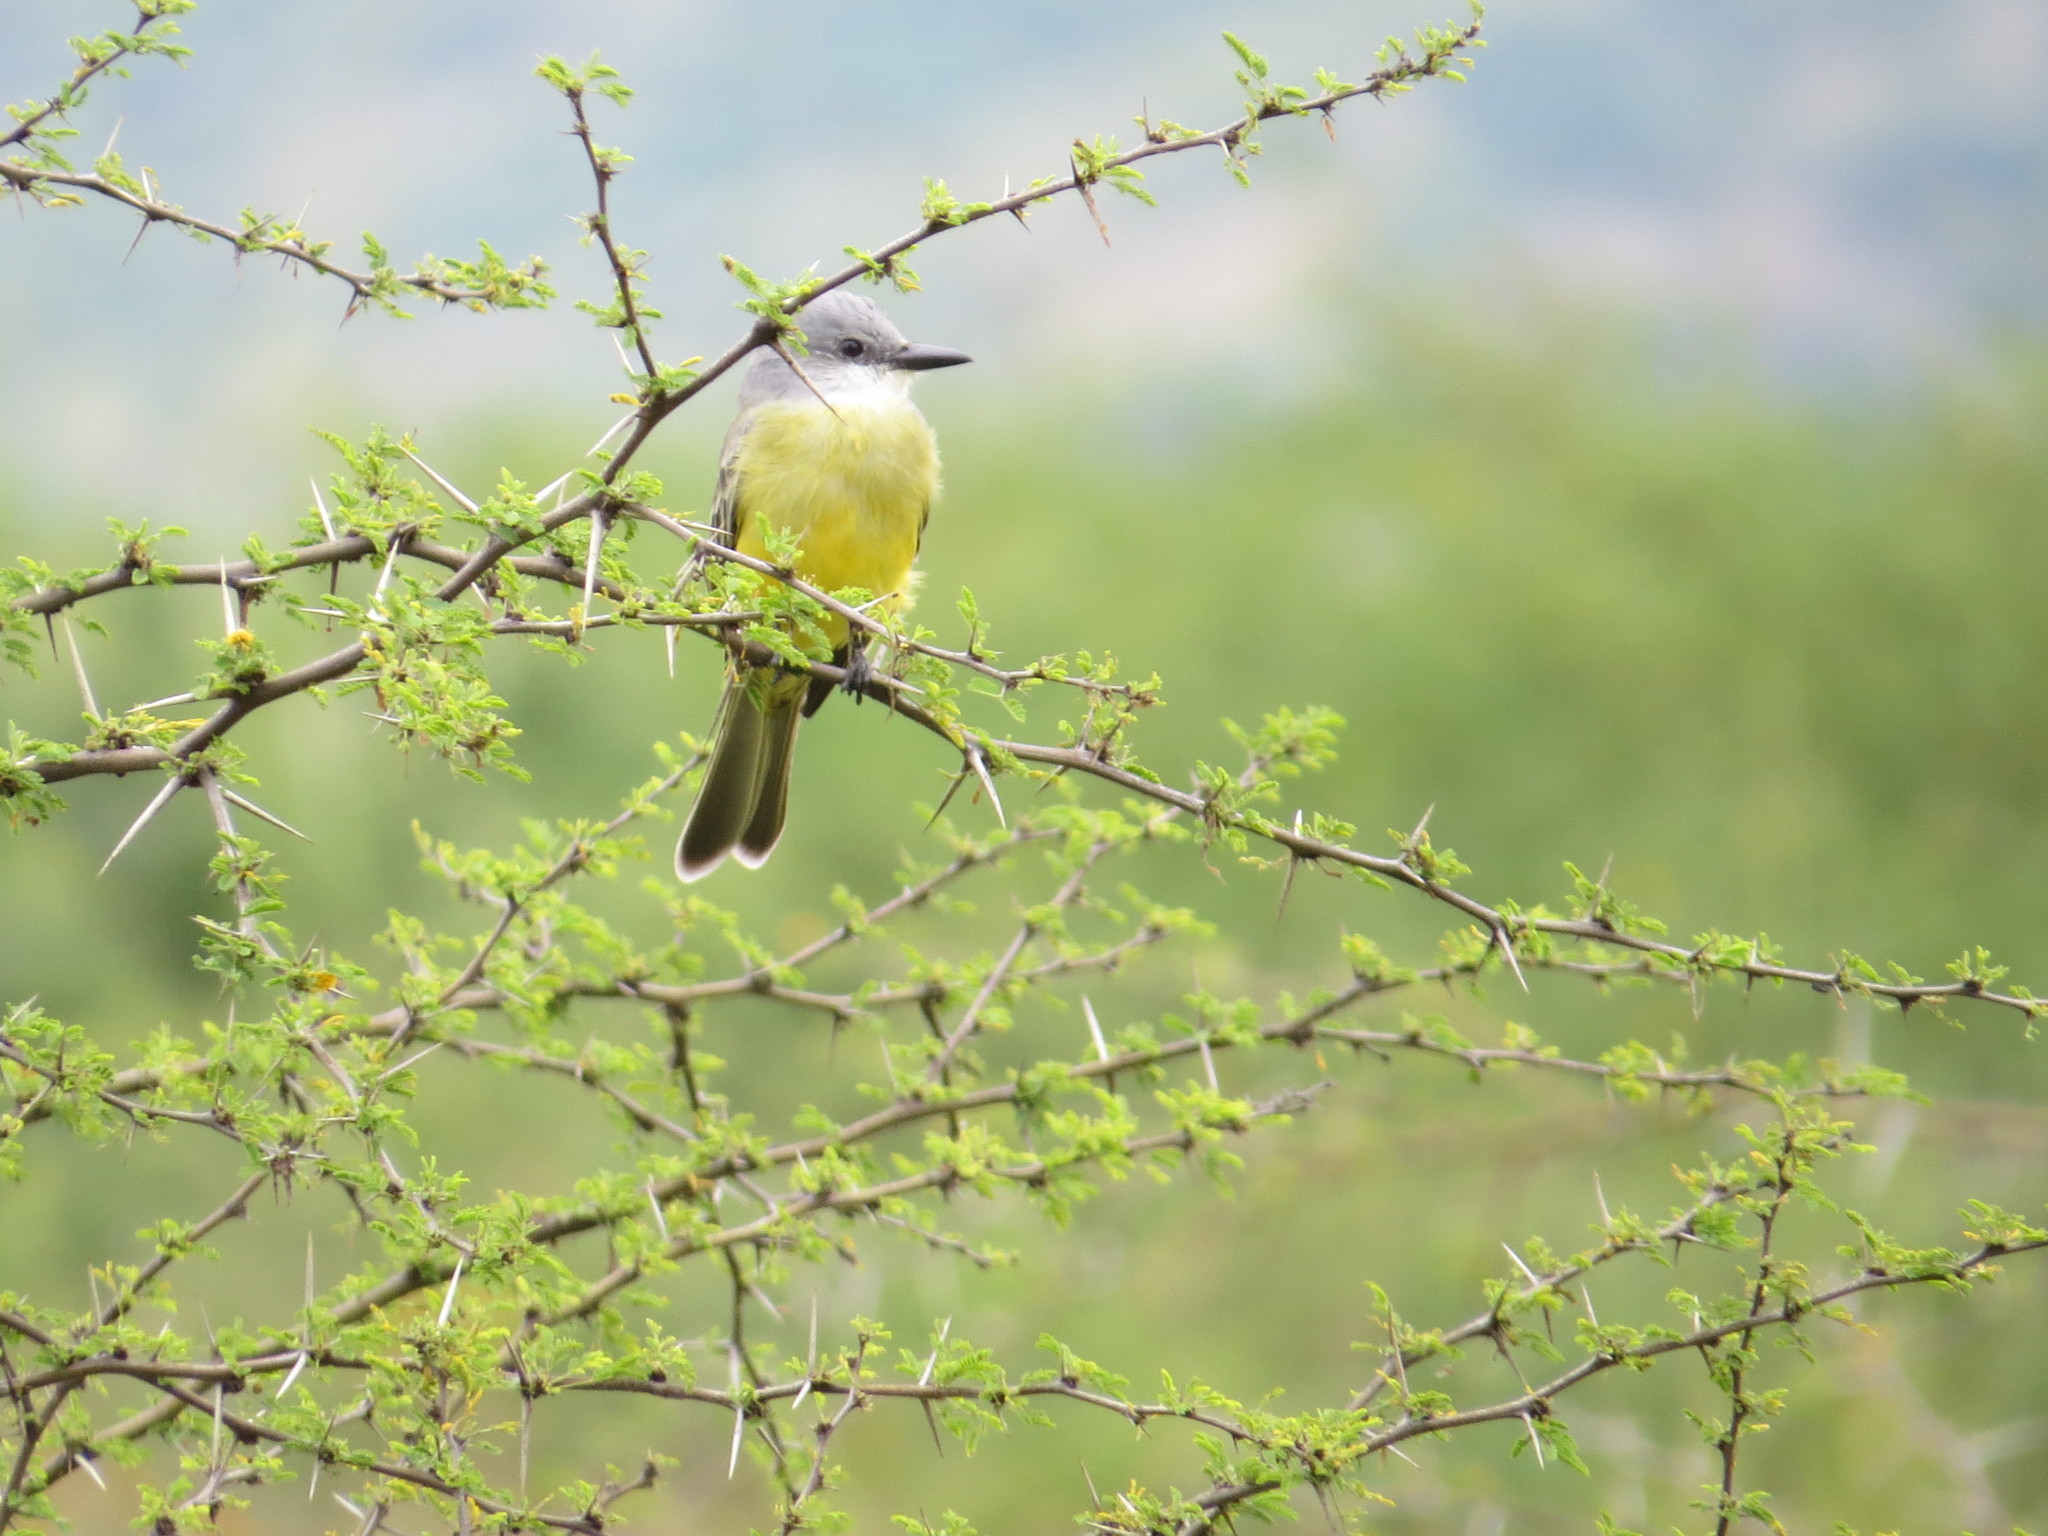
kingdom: Animalia
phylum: Chordata
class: Aves
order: Passeriformes
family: Tyrannidae
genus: Tyrannus
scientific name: Tyrannus melancholicus
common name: Tropical kingbird
